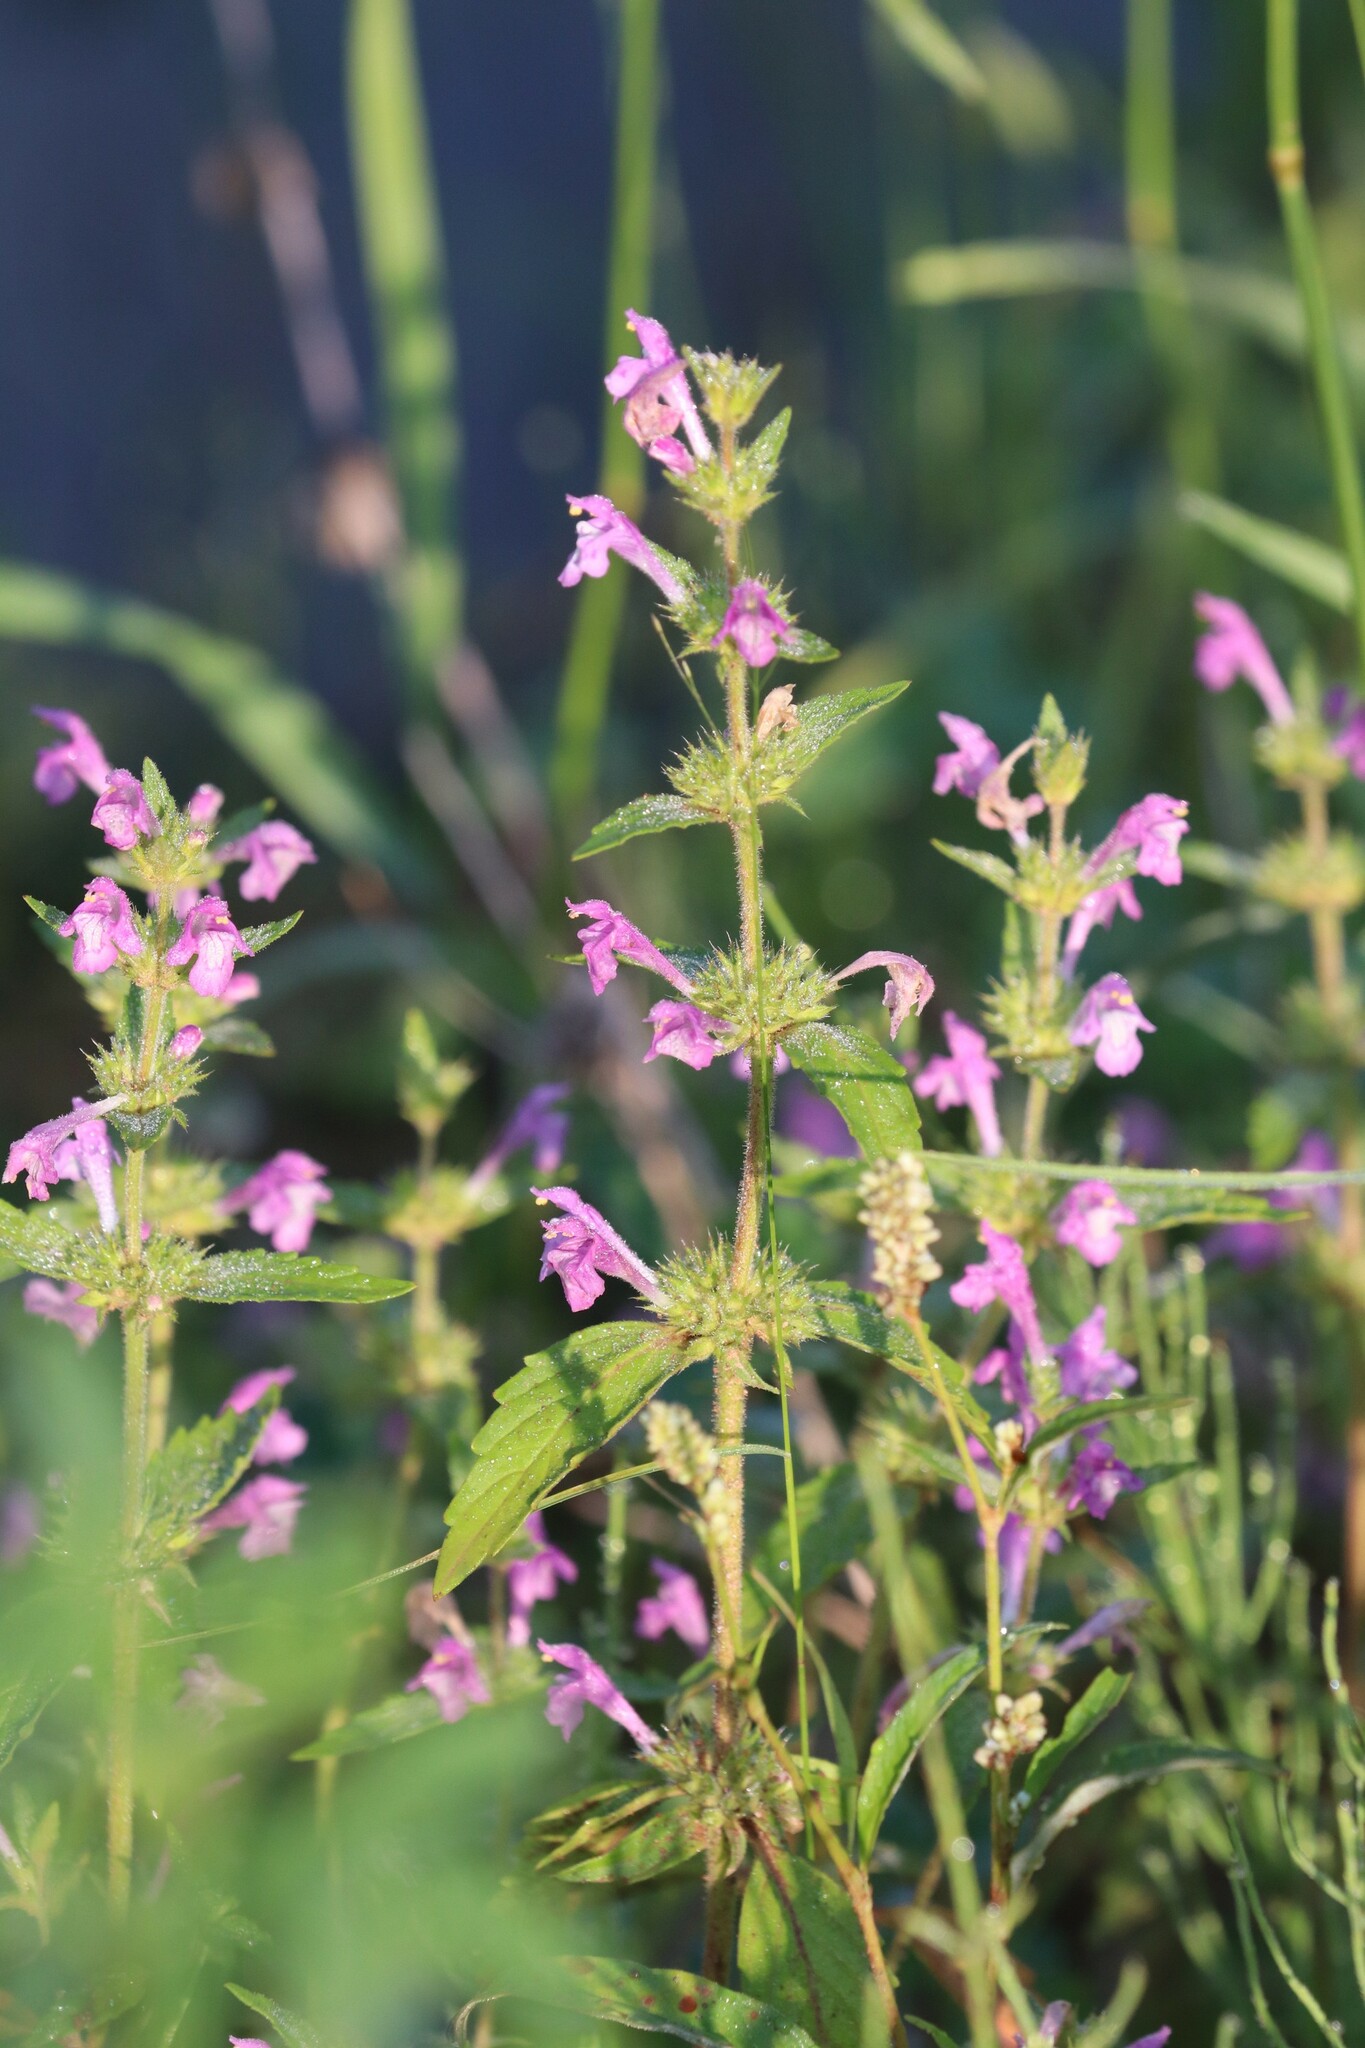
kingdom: Plantae
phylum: Tracheophyta
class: Magnoliopsida
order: Lamiales
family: Lamiaceae
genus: Galeopsis
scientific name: Galeopsis ladanum
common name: Broad-leaved hemp-nettle
